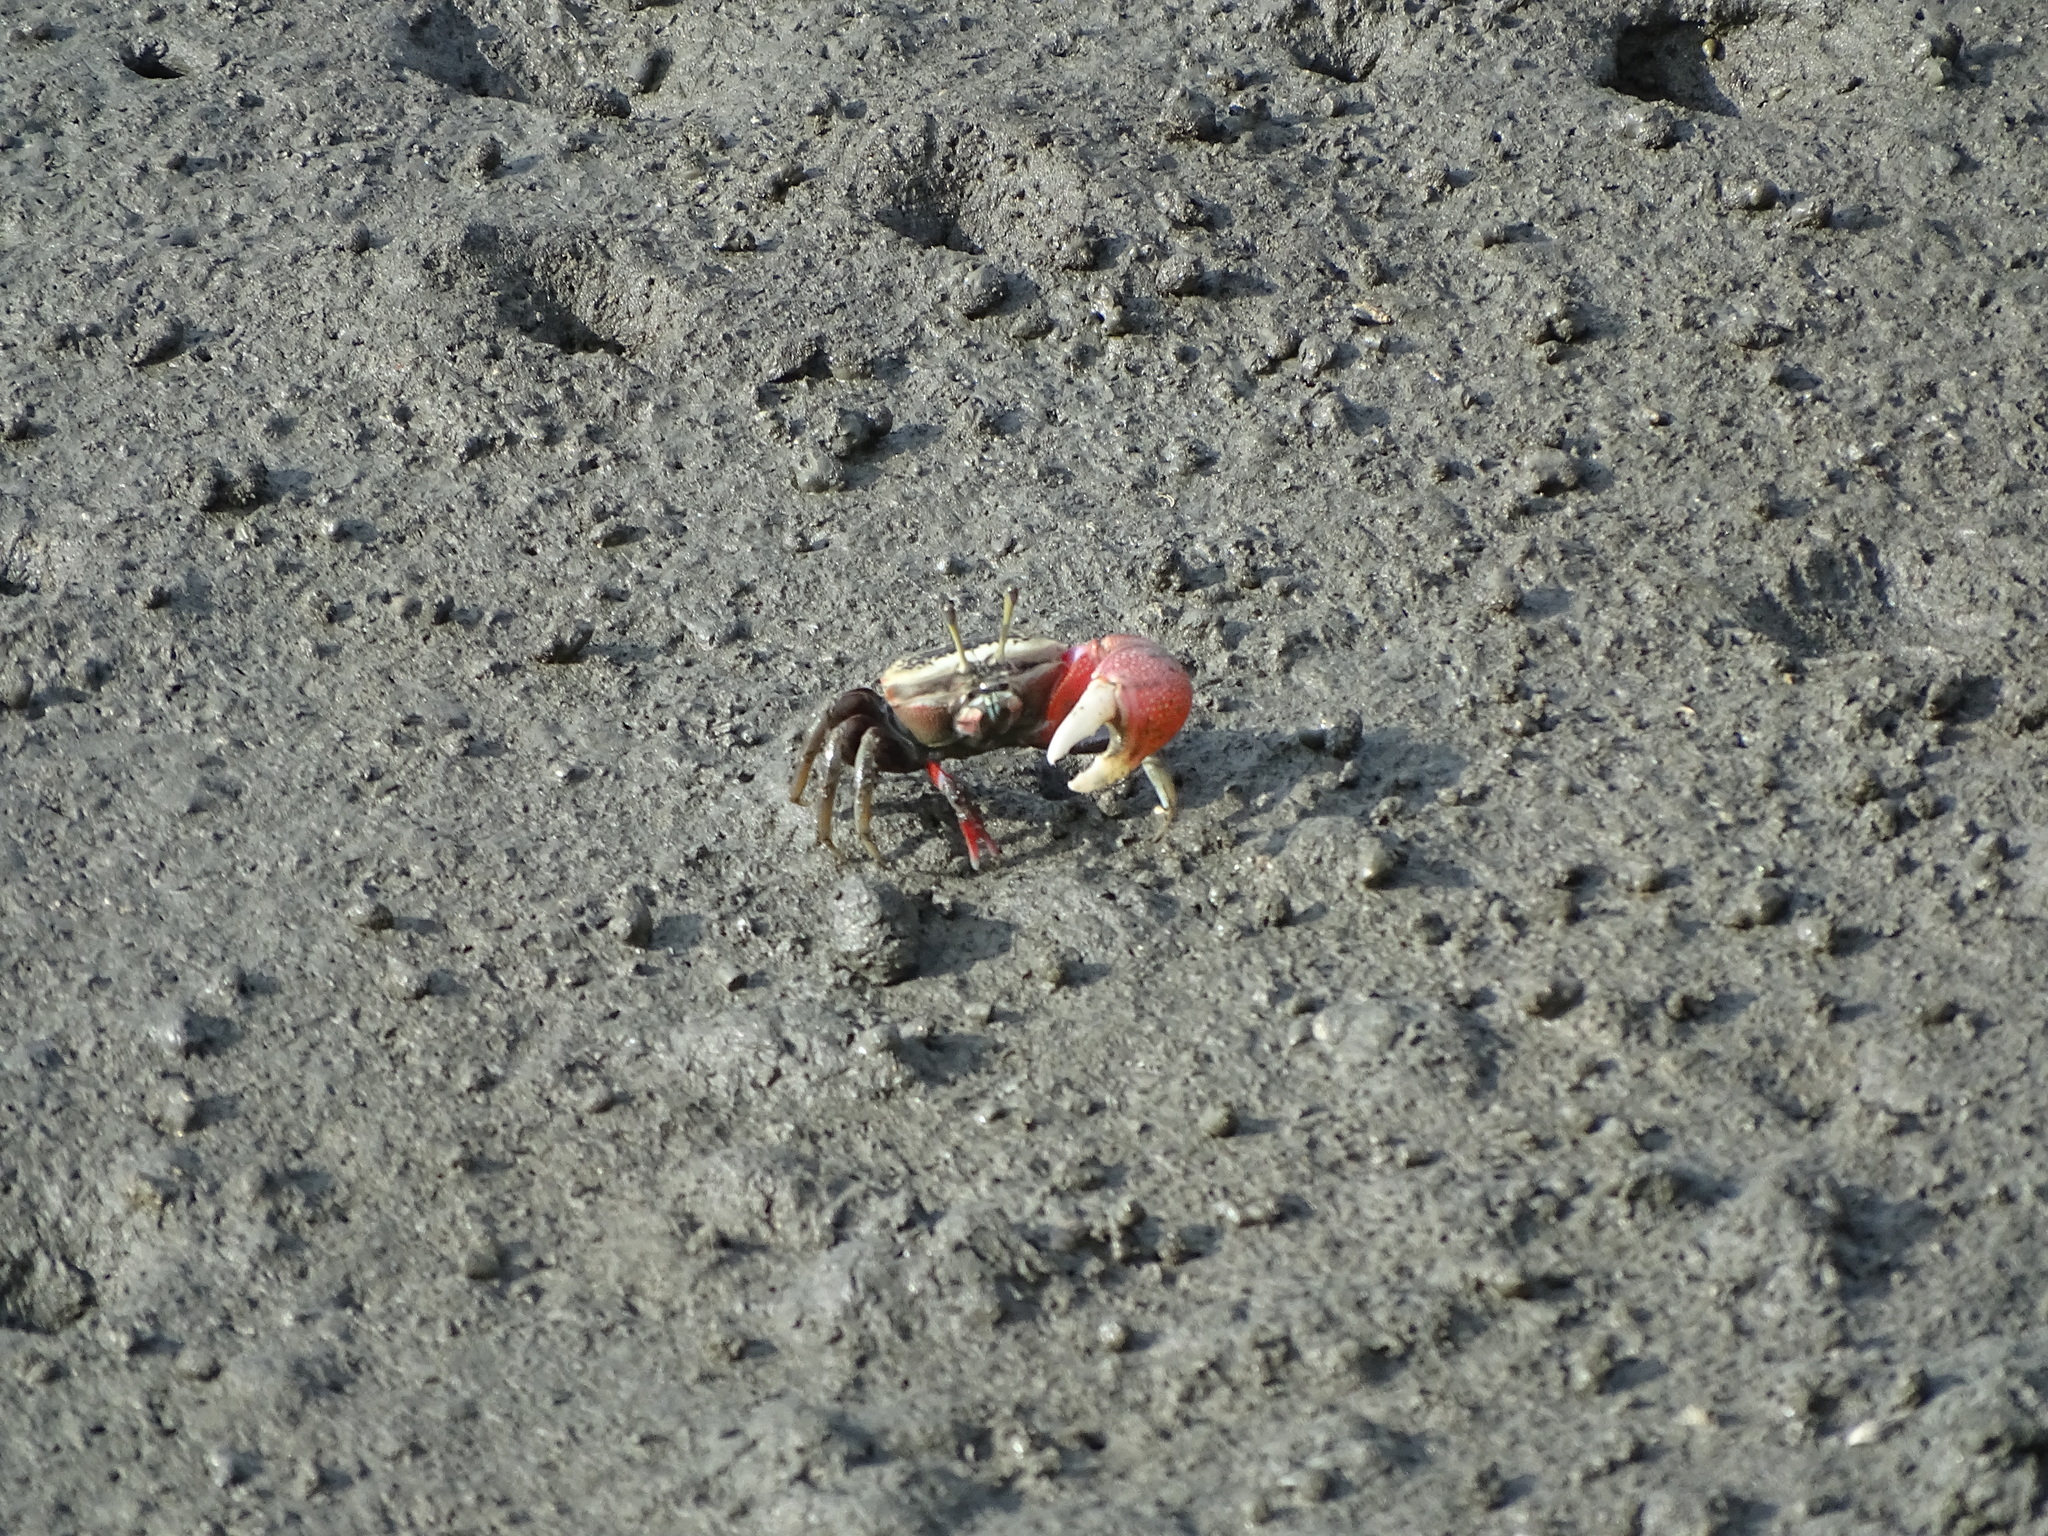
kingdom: Animalia
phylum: Arthropoda
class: Malacostraca
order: Decapoda
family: Ocypodidae
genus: Tubuca
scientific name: Tubuca arcuata
